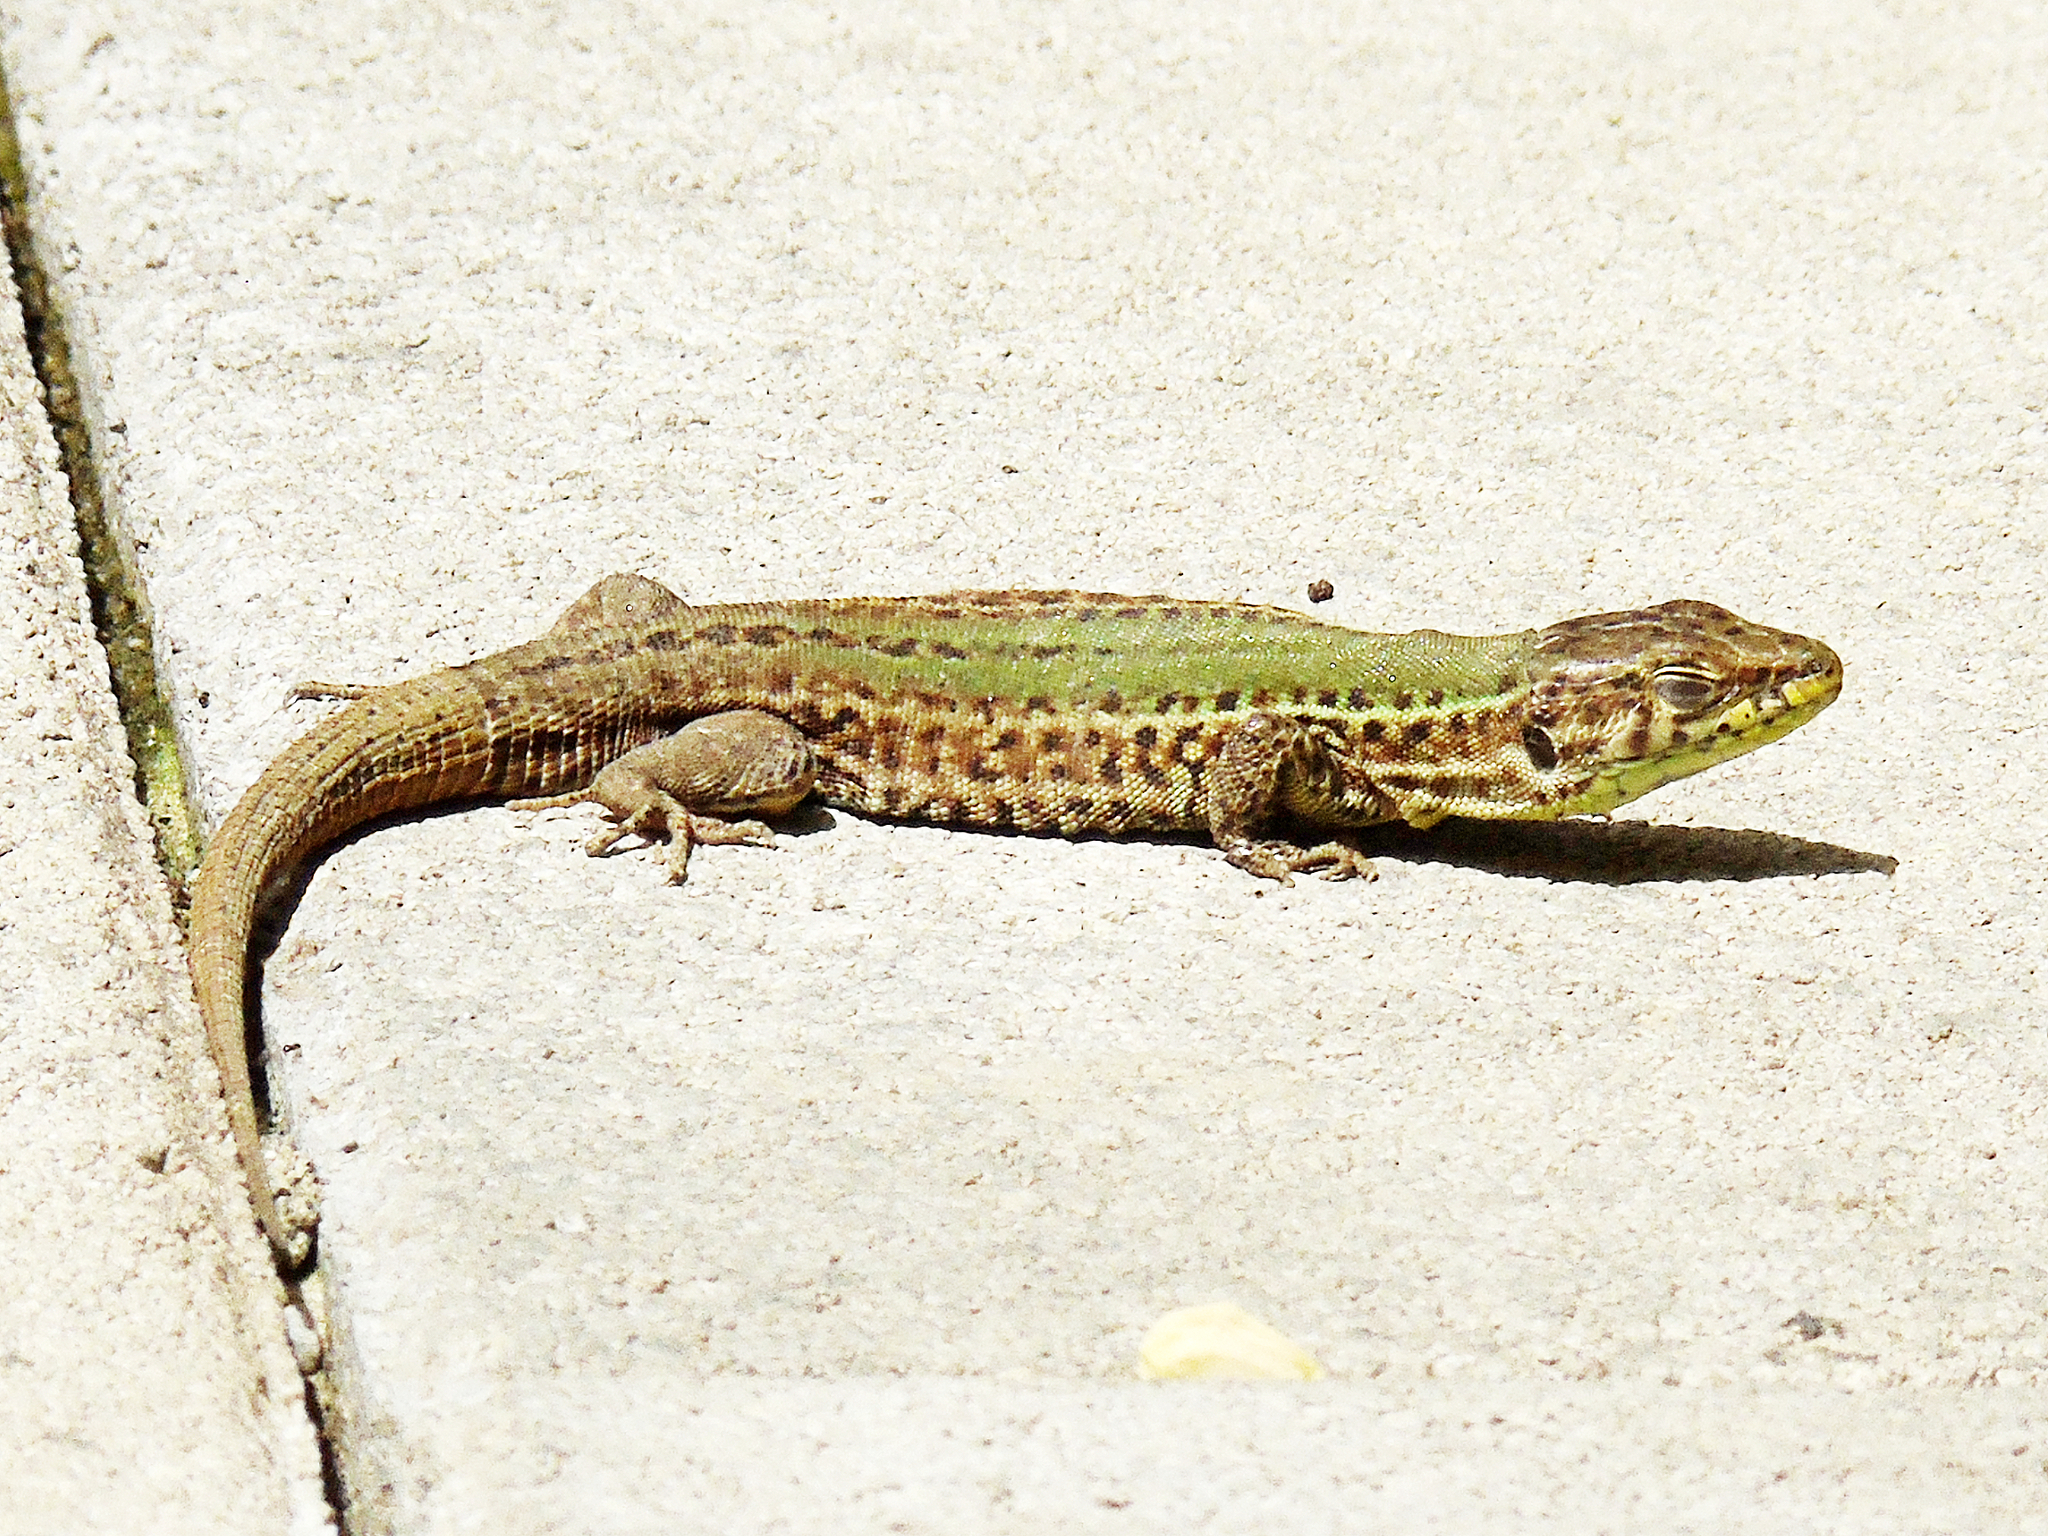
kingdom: Animalia
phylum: Chordata
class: Squamata
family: Lacertidae
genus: Podarcis
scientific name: Podarcis melisellensis
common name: Dalmatian wall lizard
